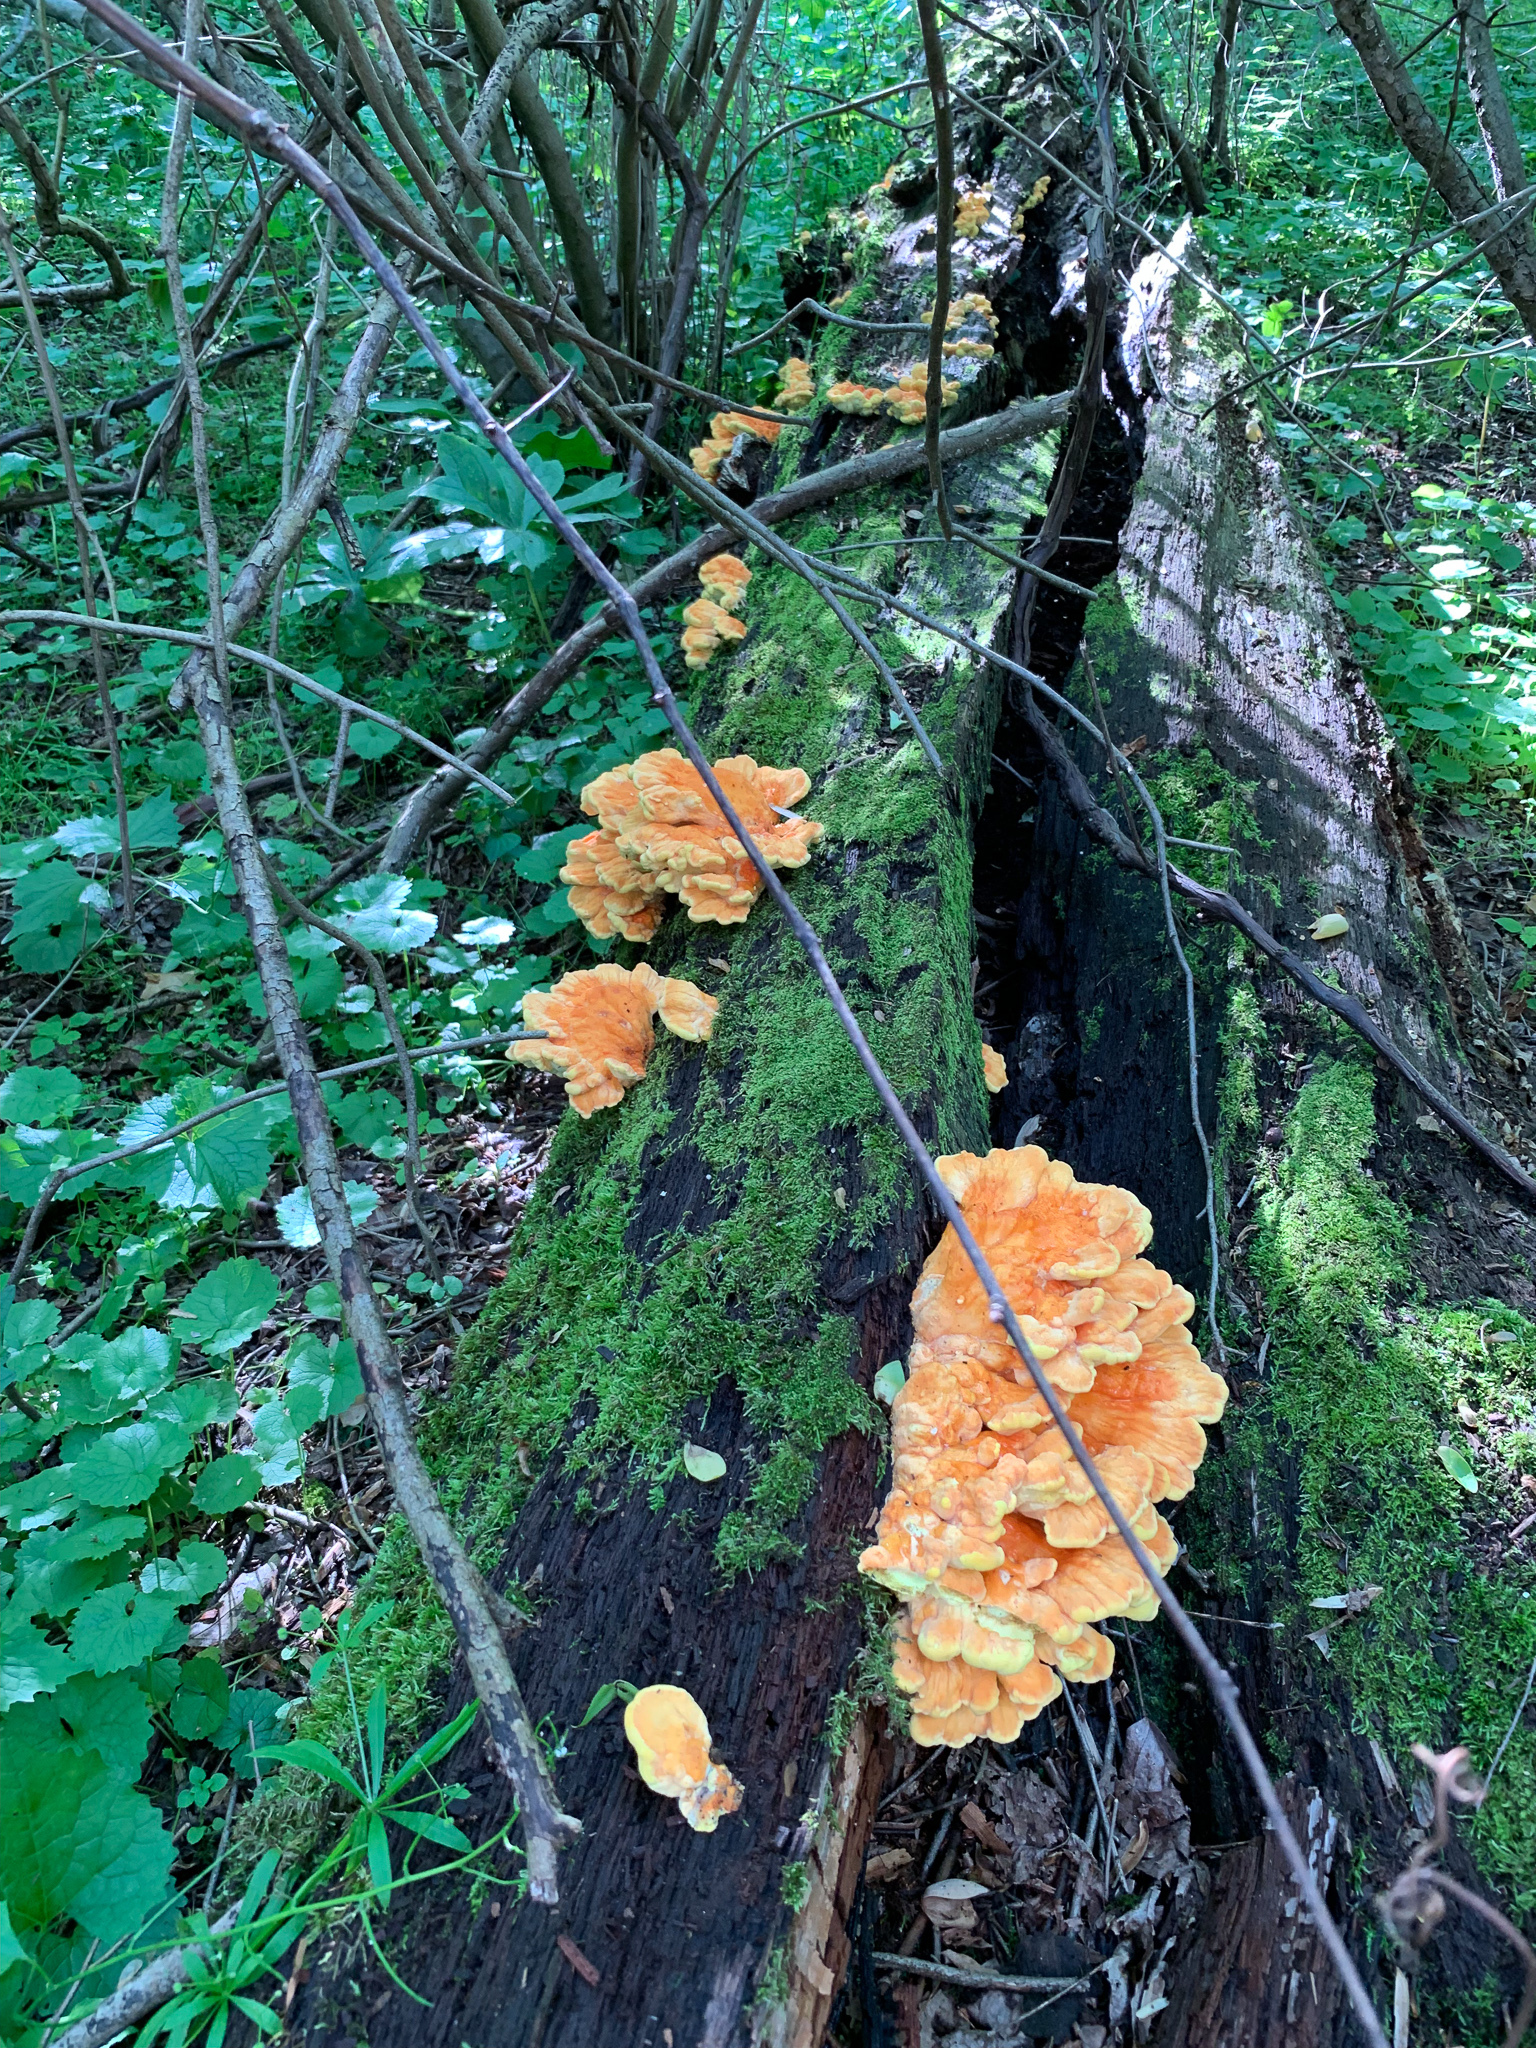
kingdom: Fungi
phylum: Basidiomycota
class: Agaricomycetes
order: Polyporales
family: Laetiporaceae
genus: Laetiporus
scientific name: Laetiporus sulphureus
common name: Chicken of the woods
